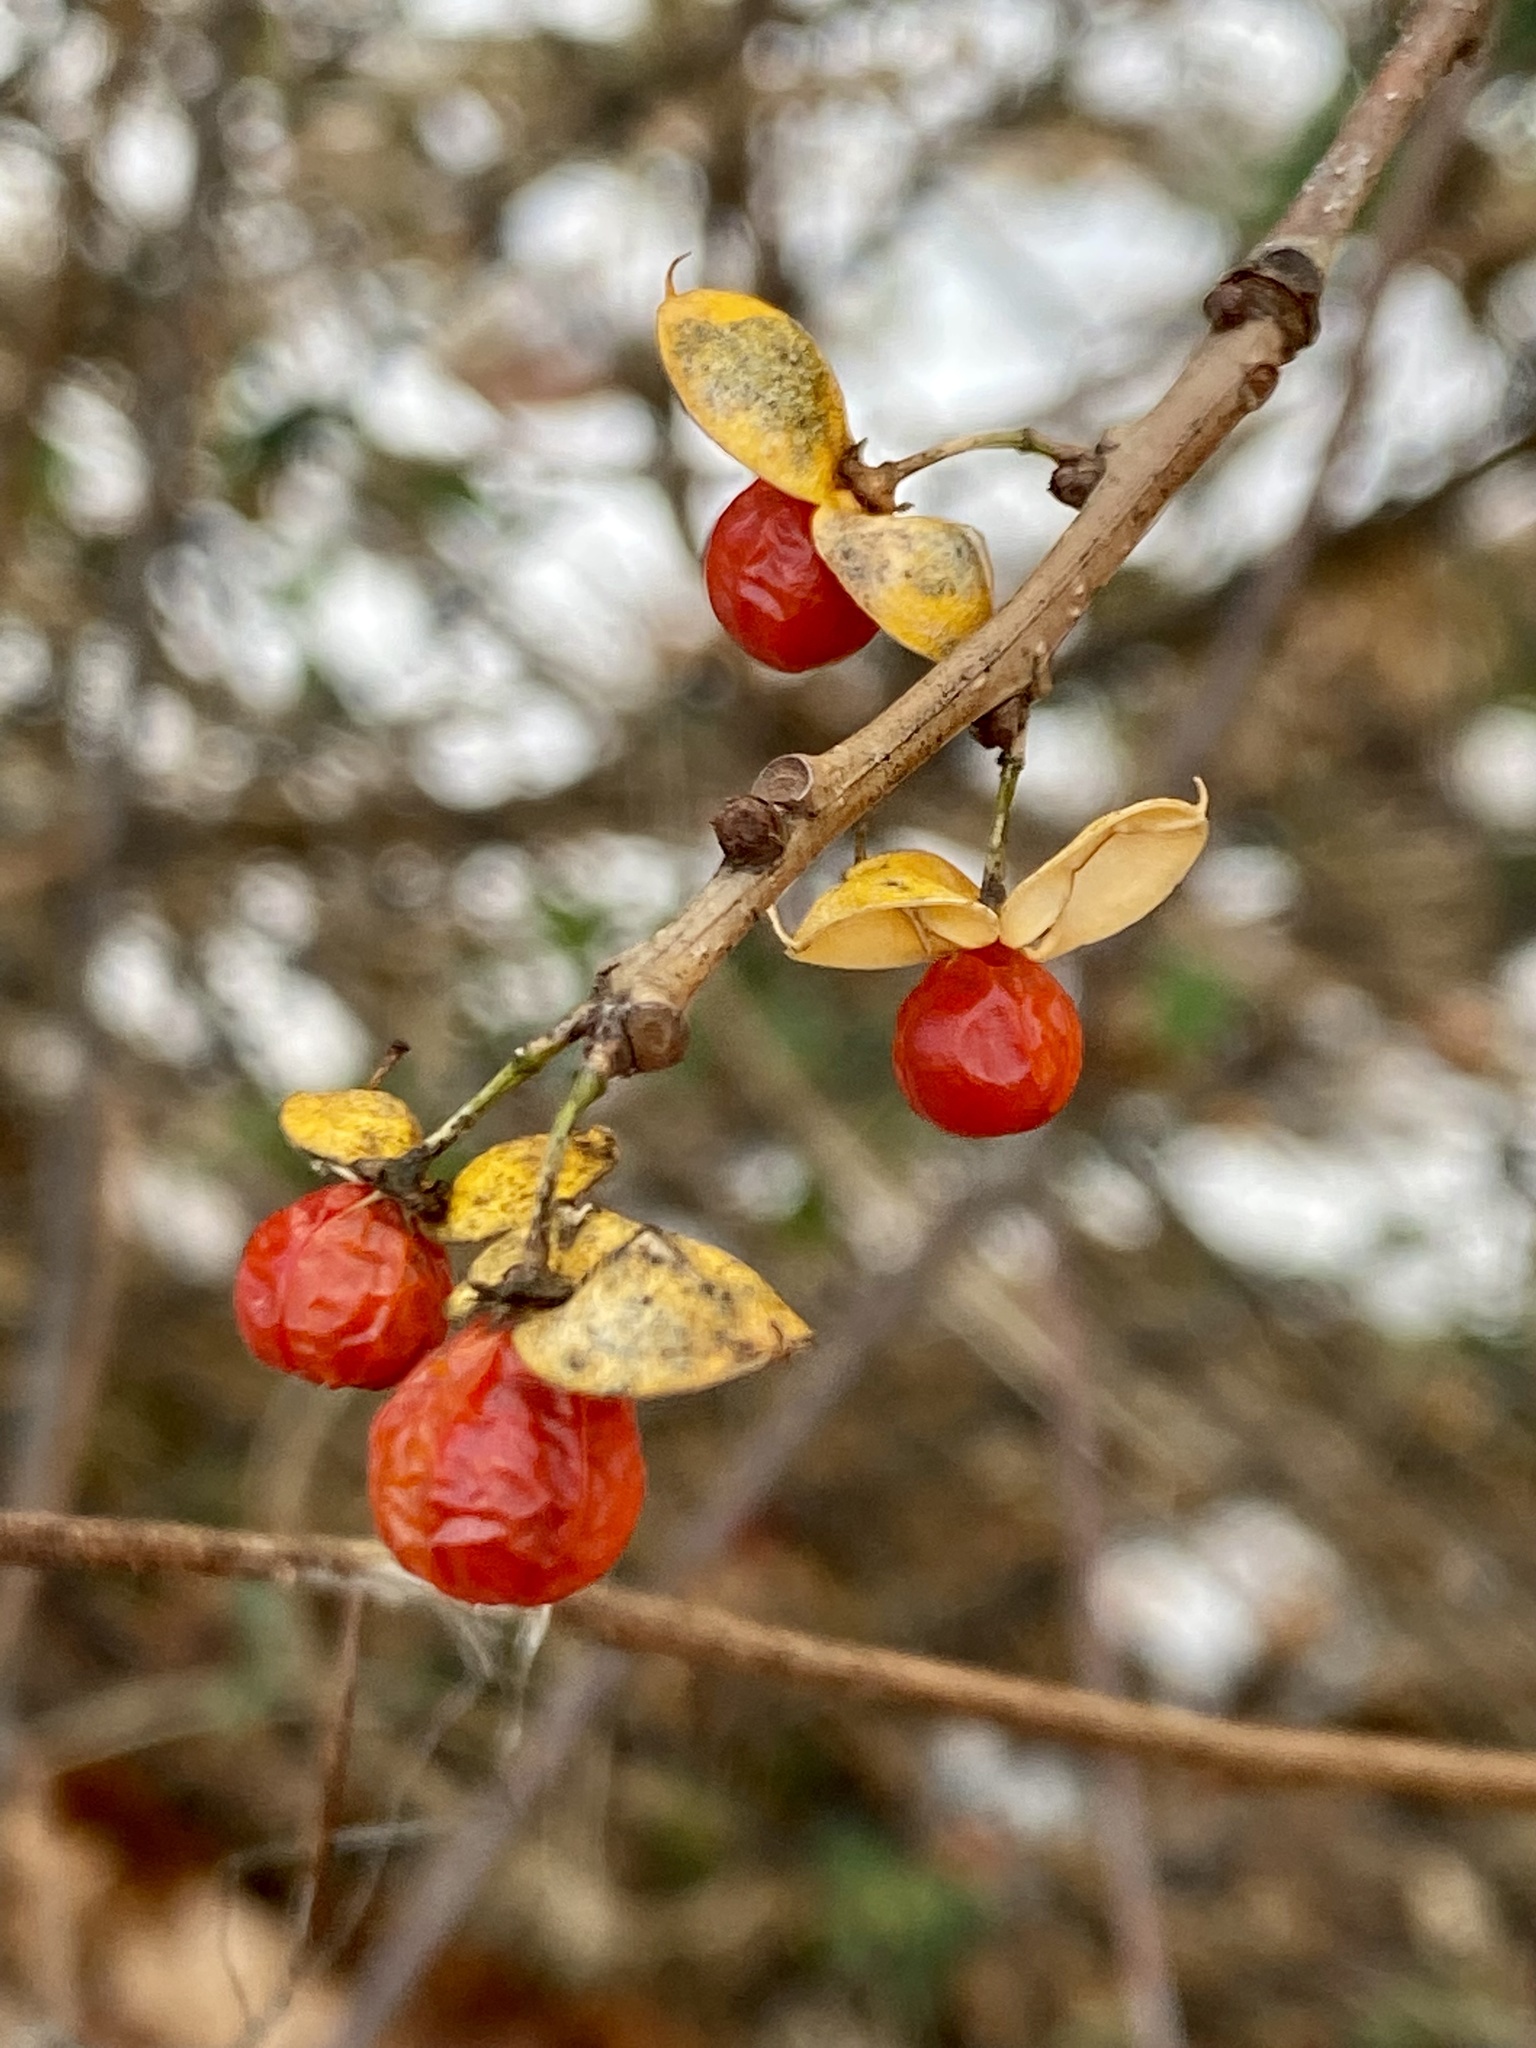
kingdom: Plantae
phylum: Tracheophyta
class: Magnoliopsida
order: Celastrales
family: Celastraceae
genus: Celastrus
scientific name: Celastrus orbiculatus
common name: Oriental bittersweet
